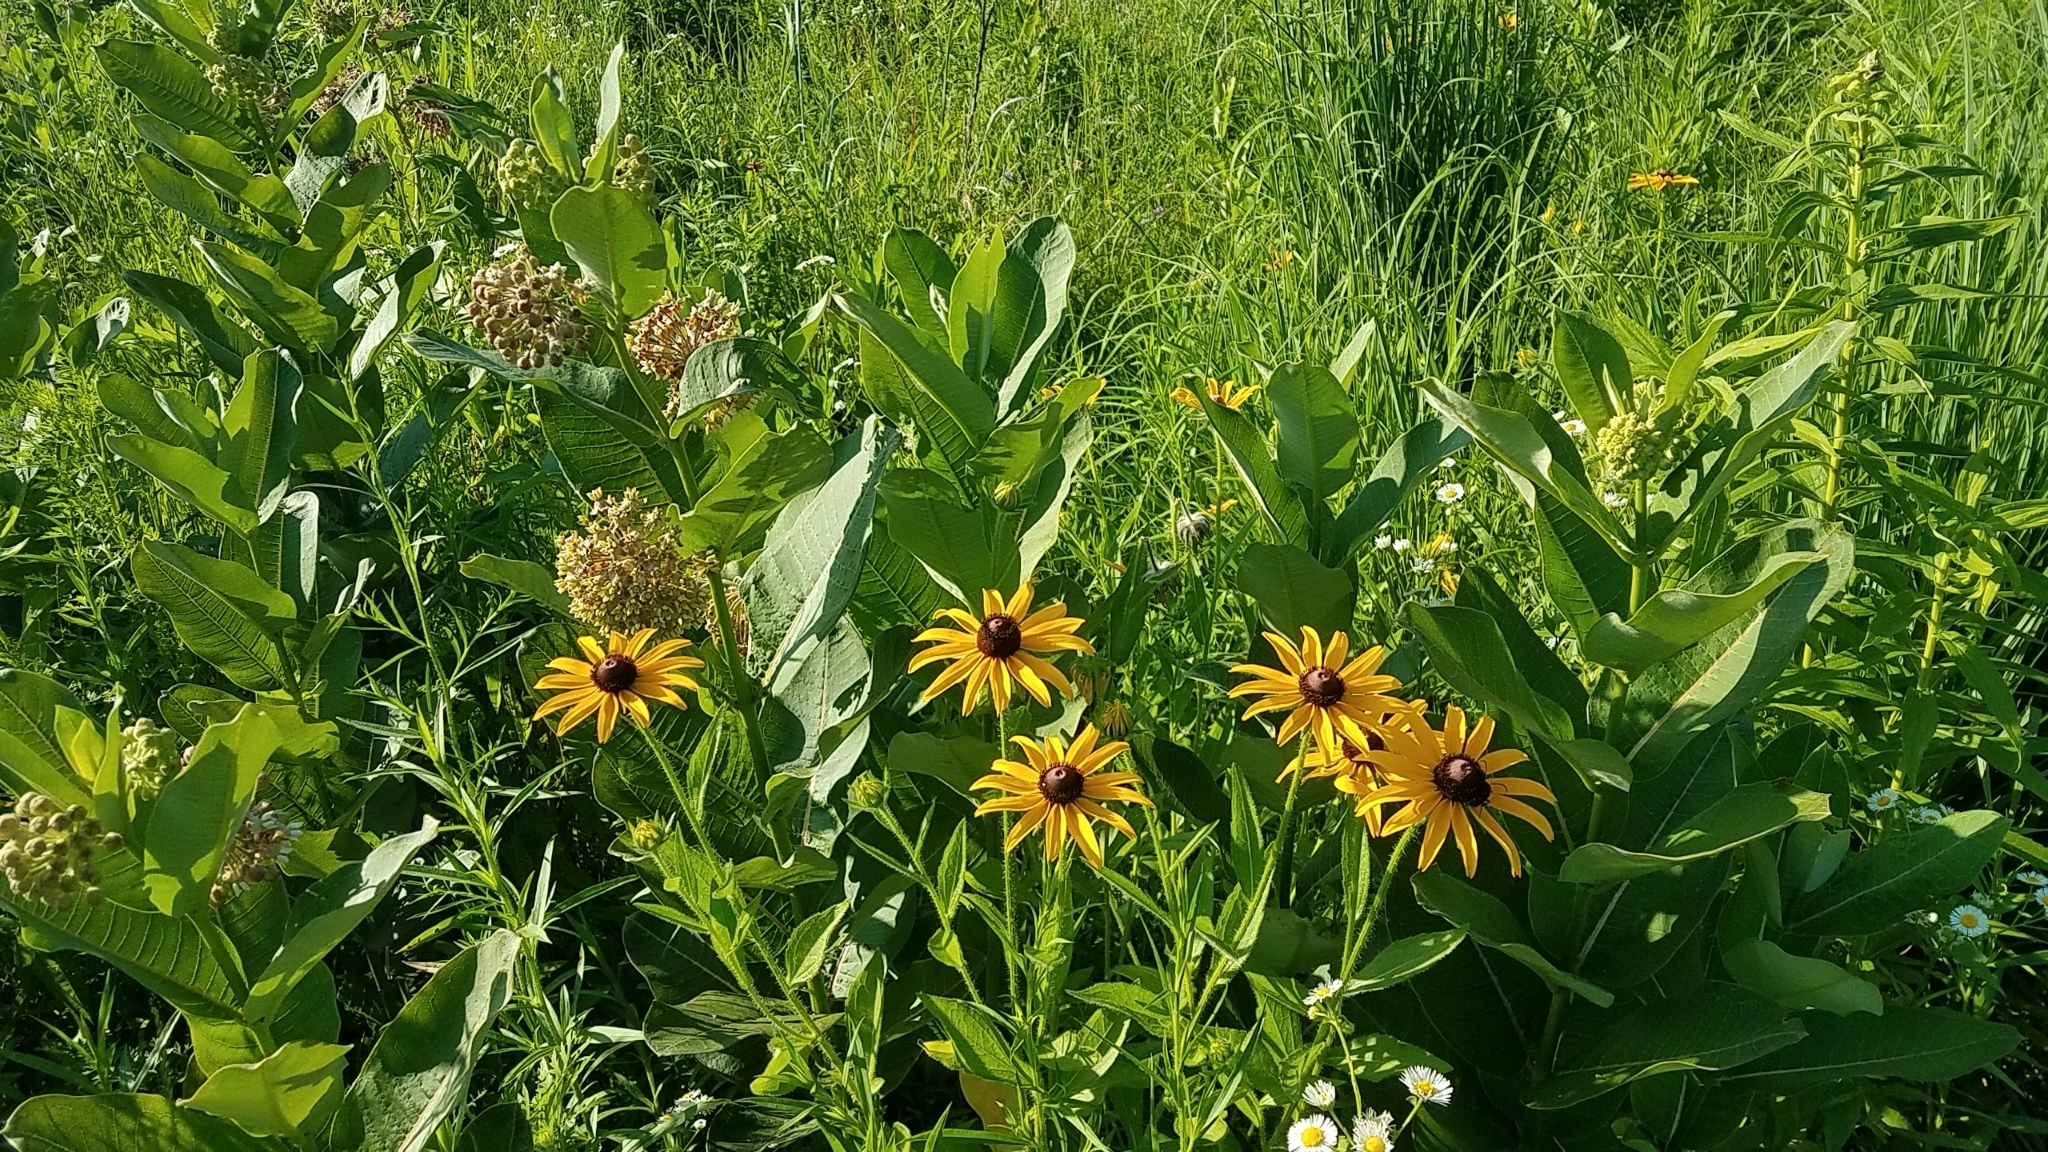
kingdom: Plantae
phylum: Tracheophyta
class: Magnoliopsida
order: Asterales
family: Asteraceae
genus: Rudbeckia
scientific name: Rudbeckia hirta
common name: Black-eyed-susan
